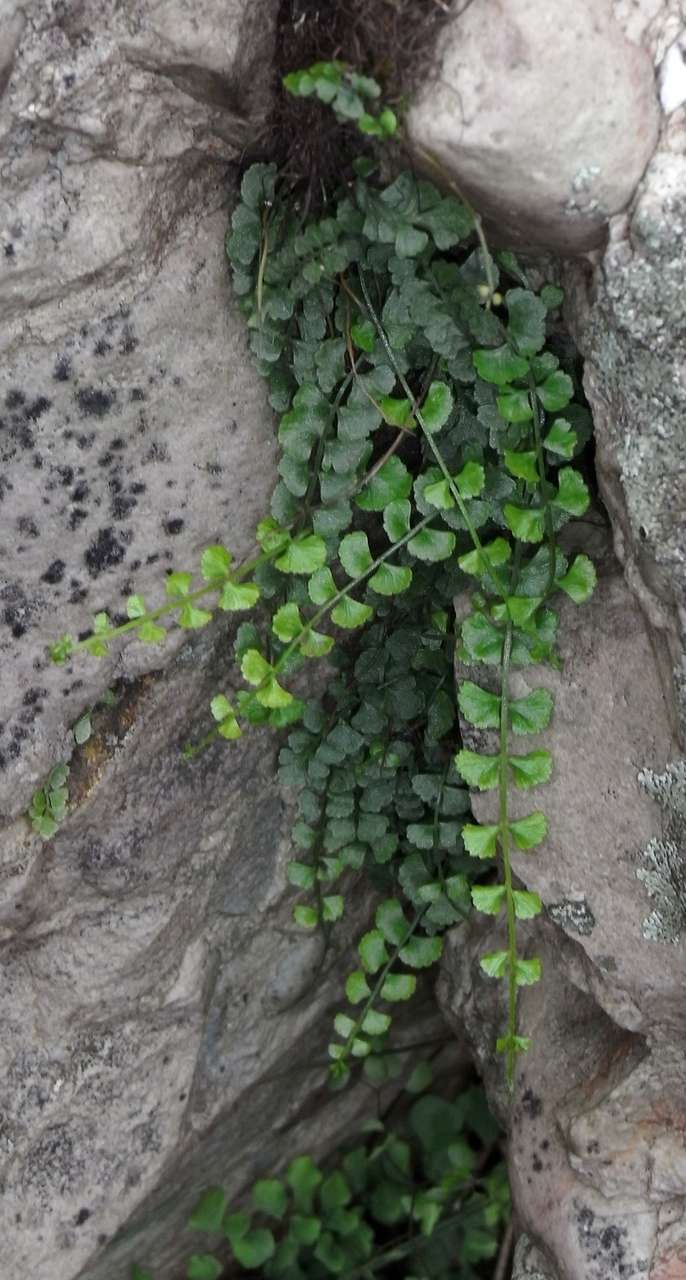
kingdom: Plantae
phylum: Tracheophyta
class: Polypodiopsida
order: Polypodiales
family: Aspleniaceae
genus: Asplenium
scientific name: Asplenium flabellifolium
